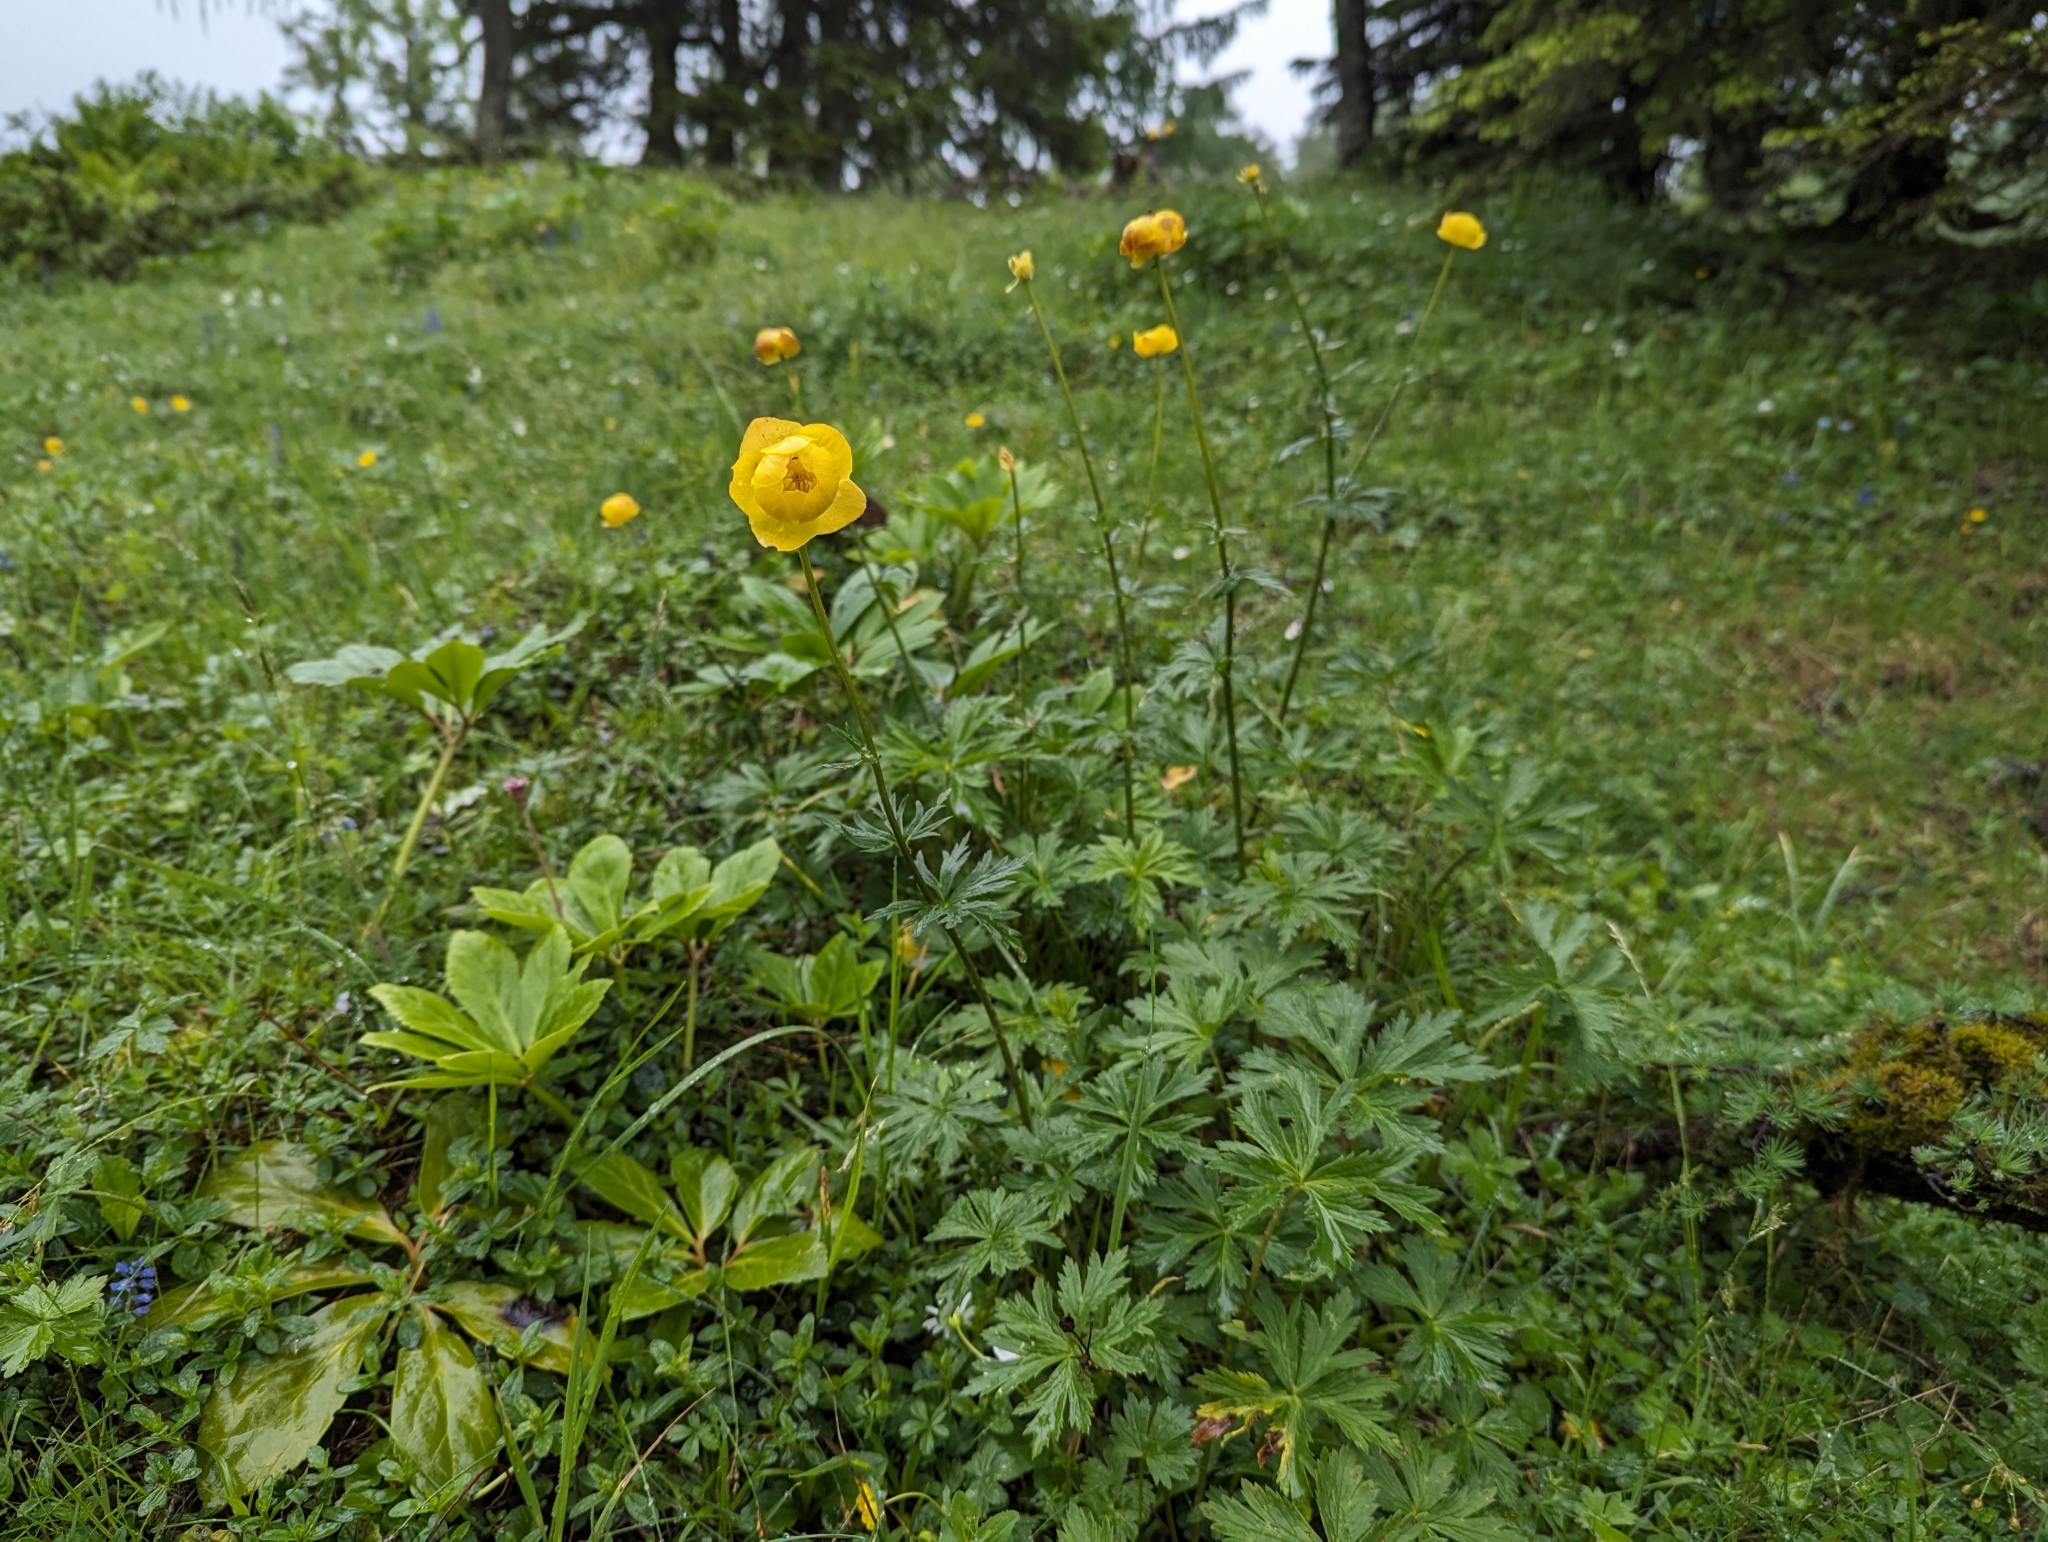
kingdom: Plantae
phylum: Tracheophyta
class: Magnoliopsida
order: Ranunculales
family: Ranunculaceae
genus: Trollius
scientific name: Trollius europaeus
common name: European globeflower
